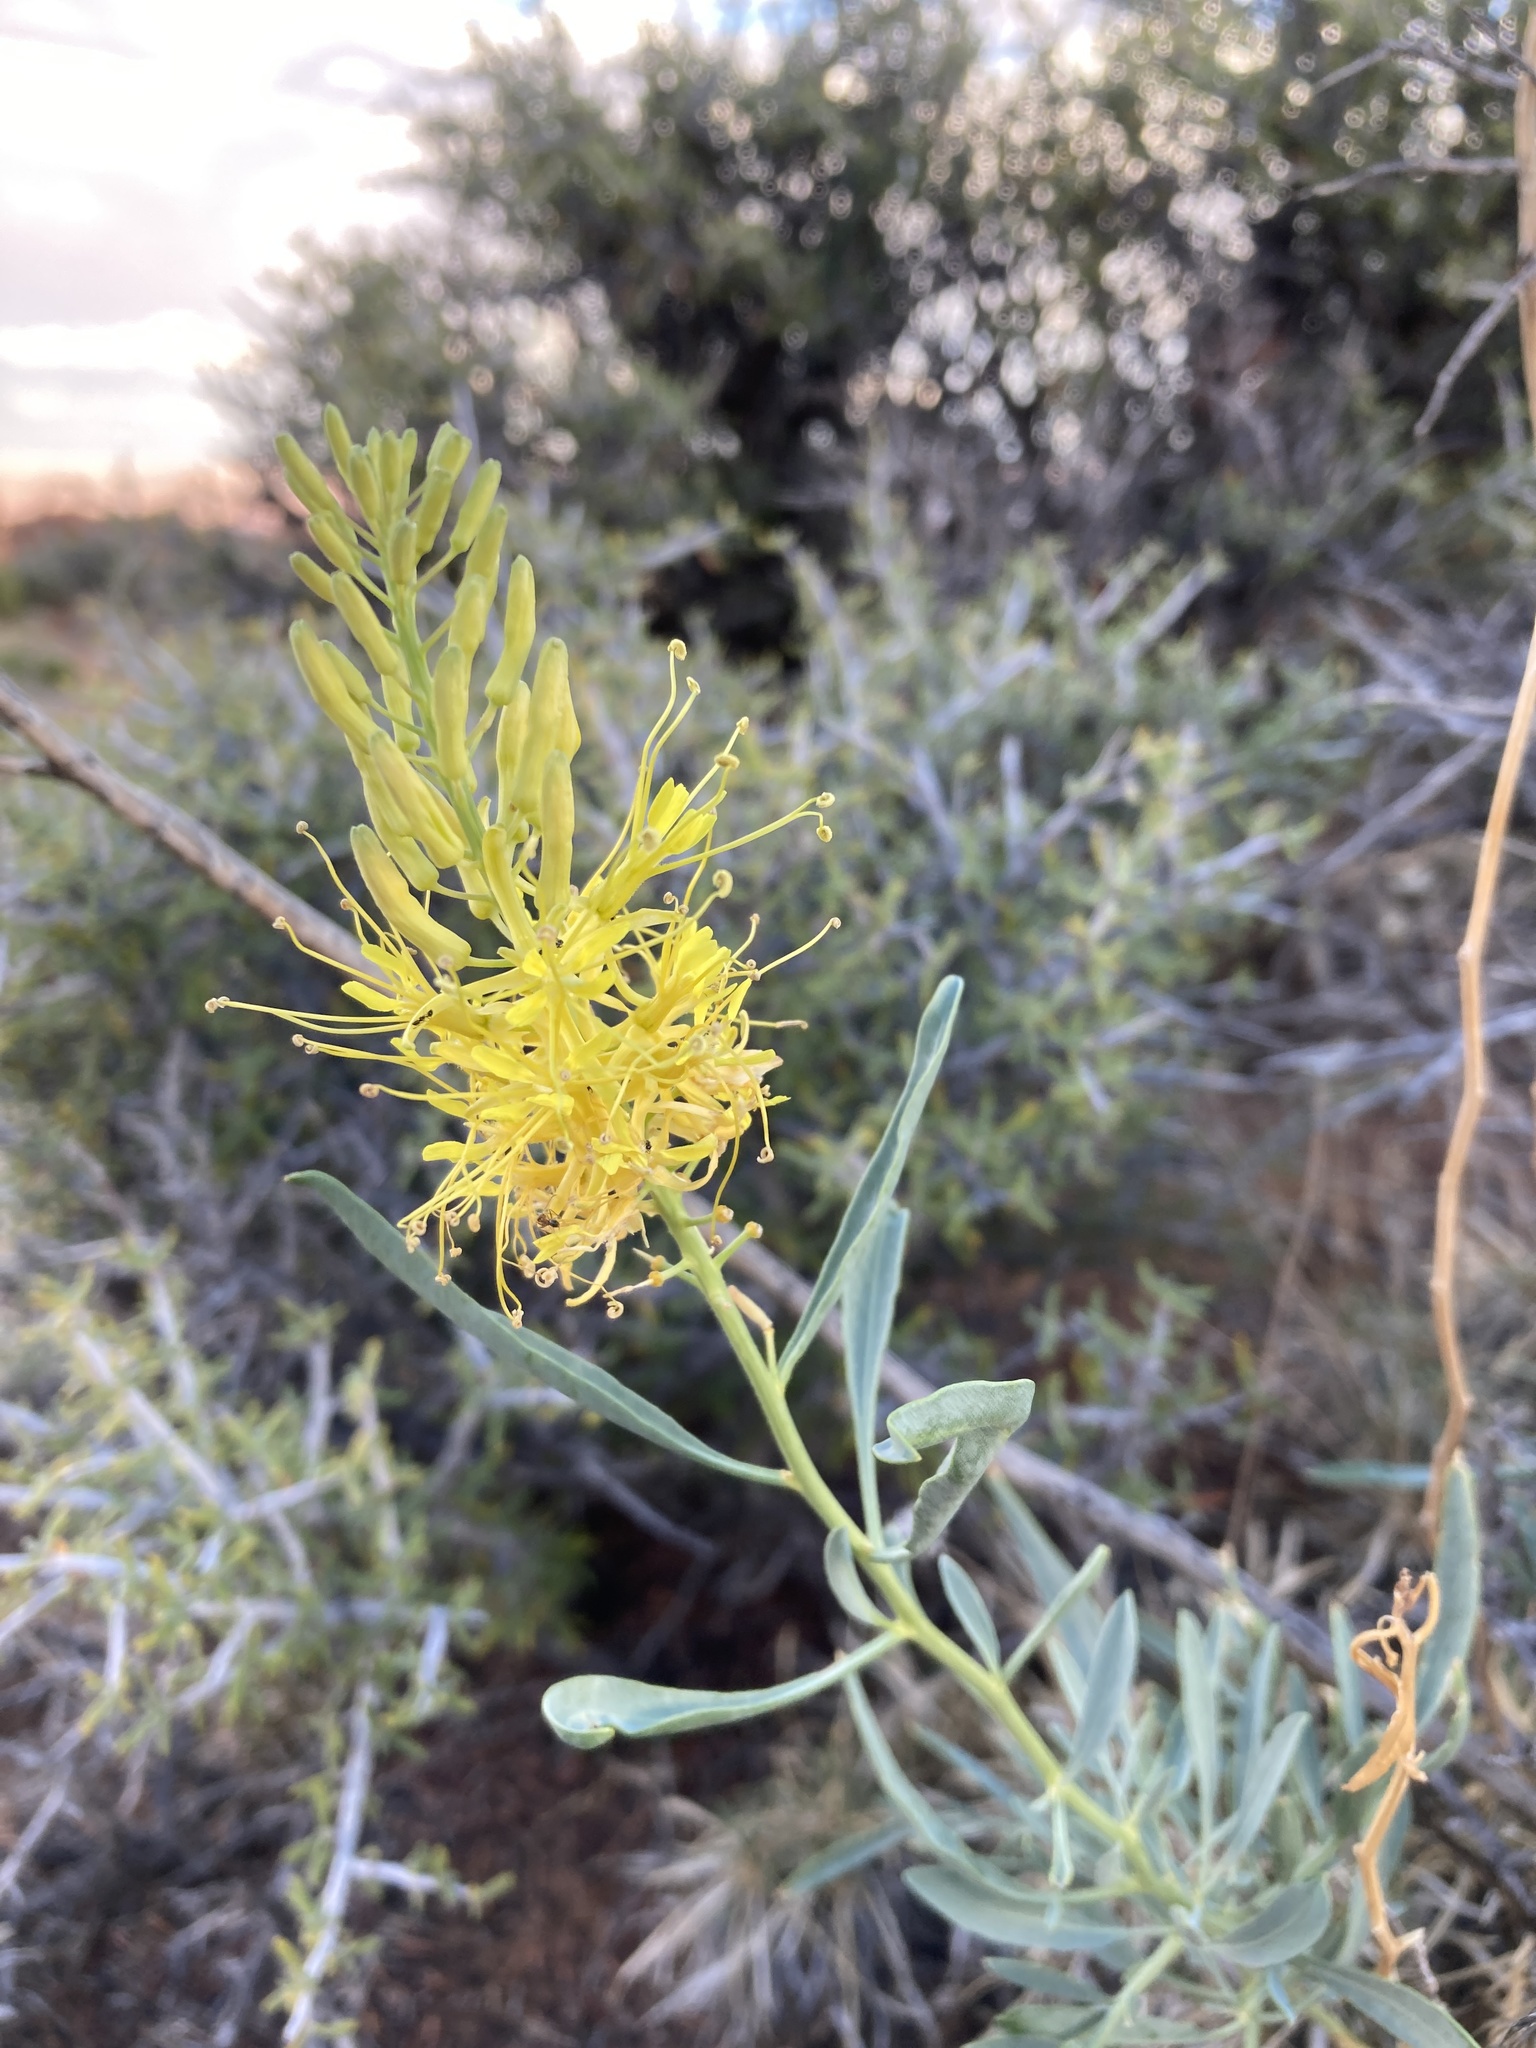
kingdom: Plantae
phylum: Tracheophyta
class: Magnoliopsida
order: Brassicales
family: Brassicaceae
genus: Stanleya
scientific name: Stanleya pinnata
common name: Prince's-plume
